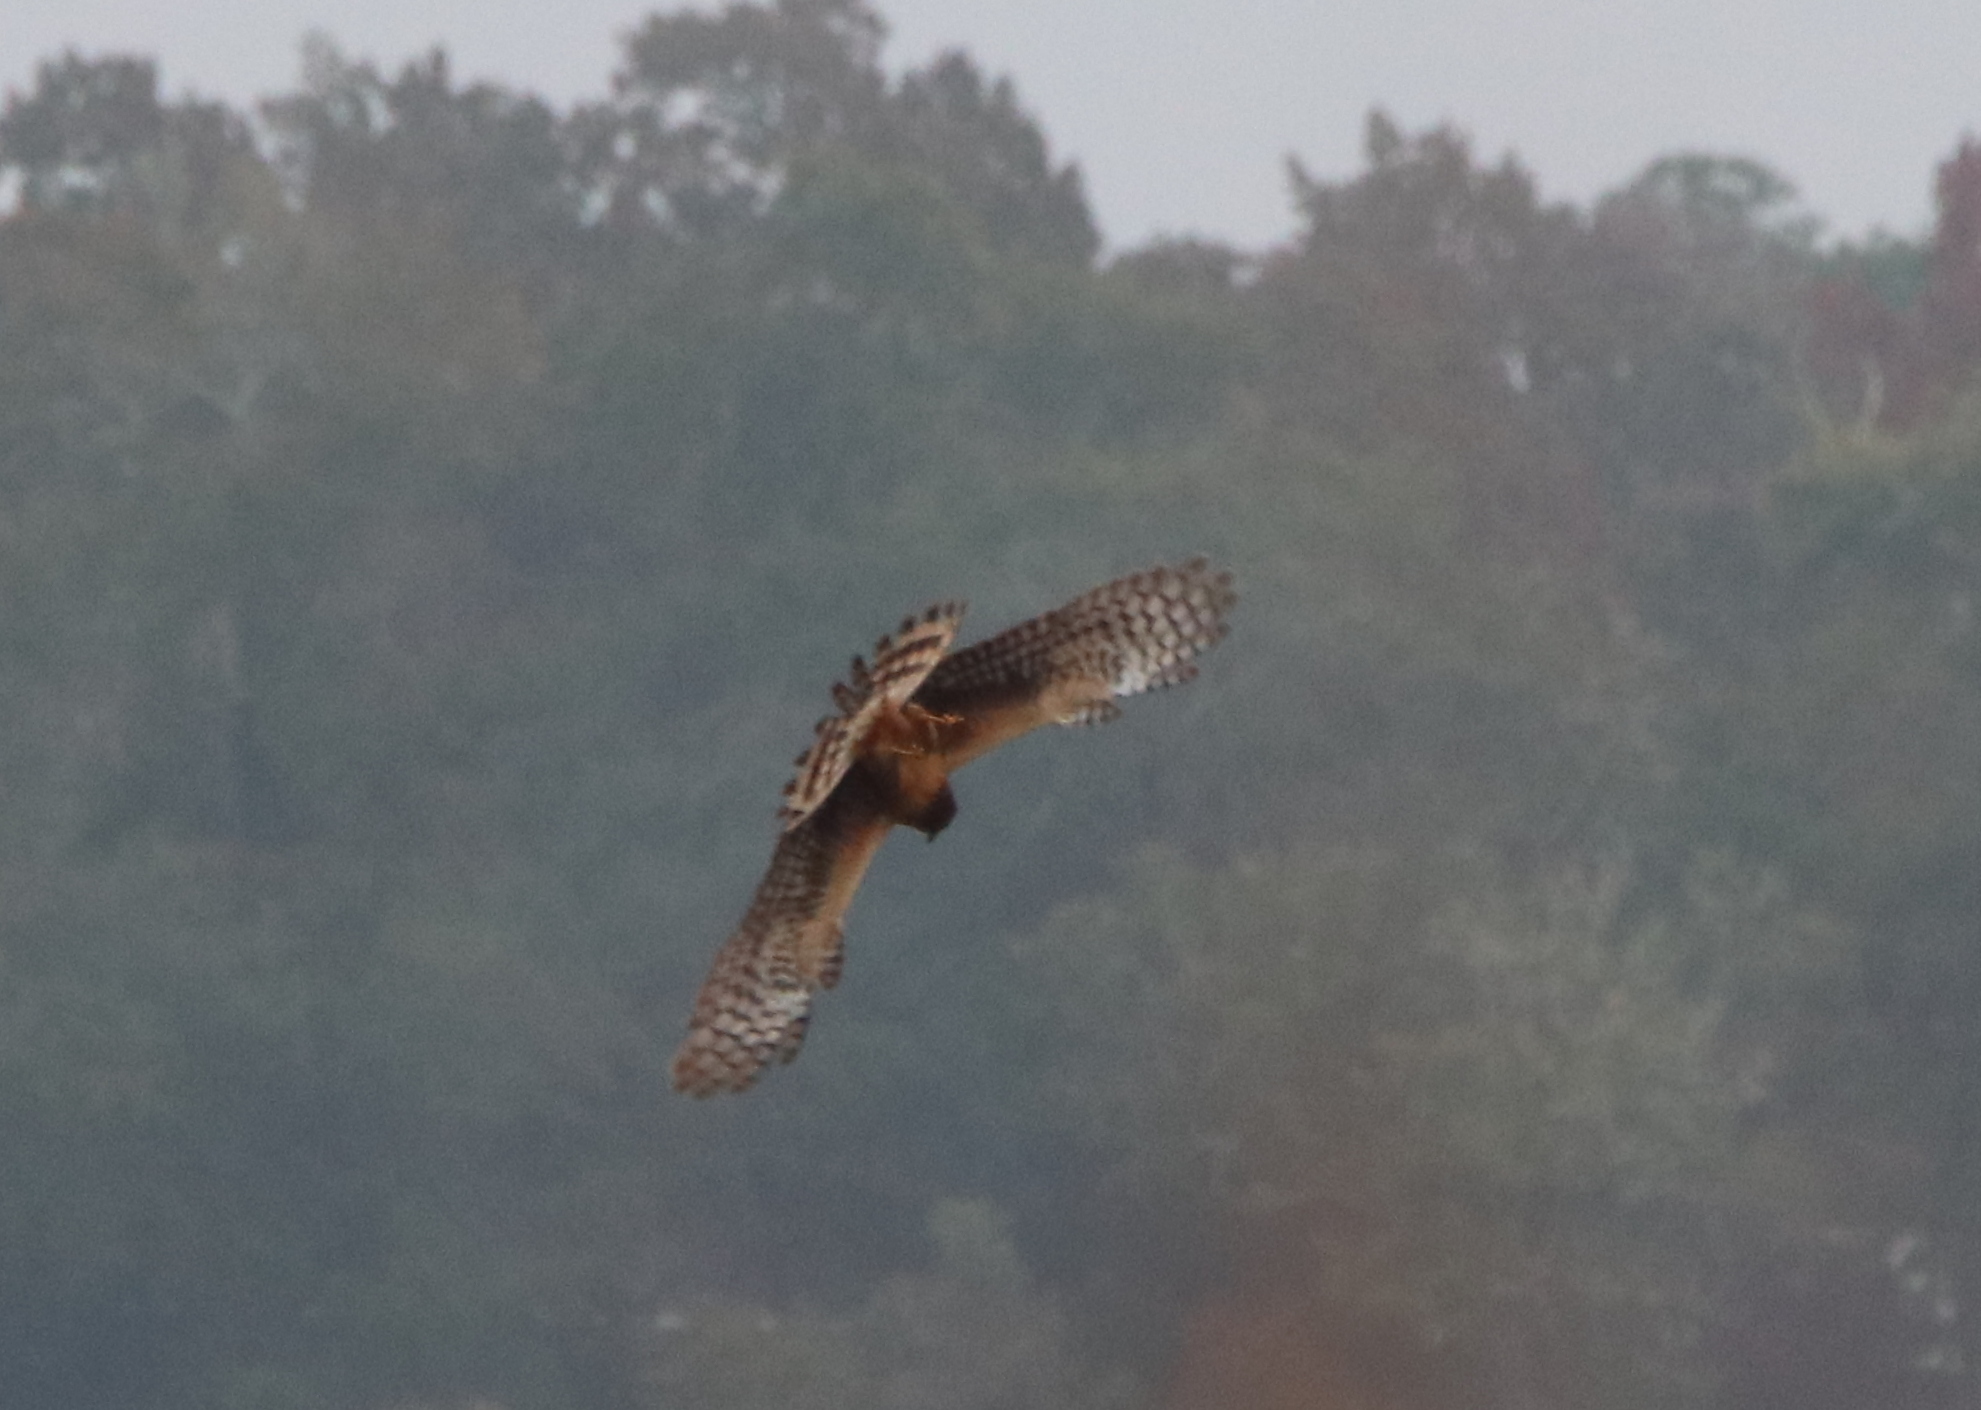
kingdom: Animalia
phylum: Chordata
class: Aves
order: Accipitriformes
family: Accipitridae
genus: Circus
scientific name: Circus cyaneus
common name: Hen harrier
